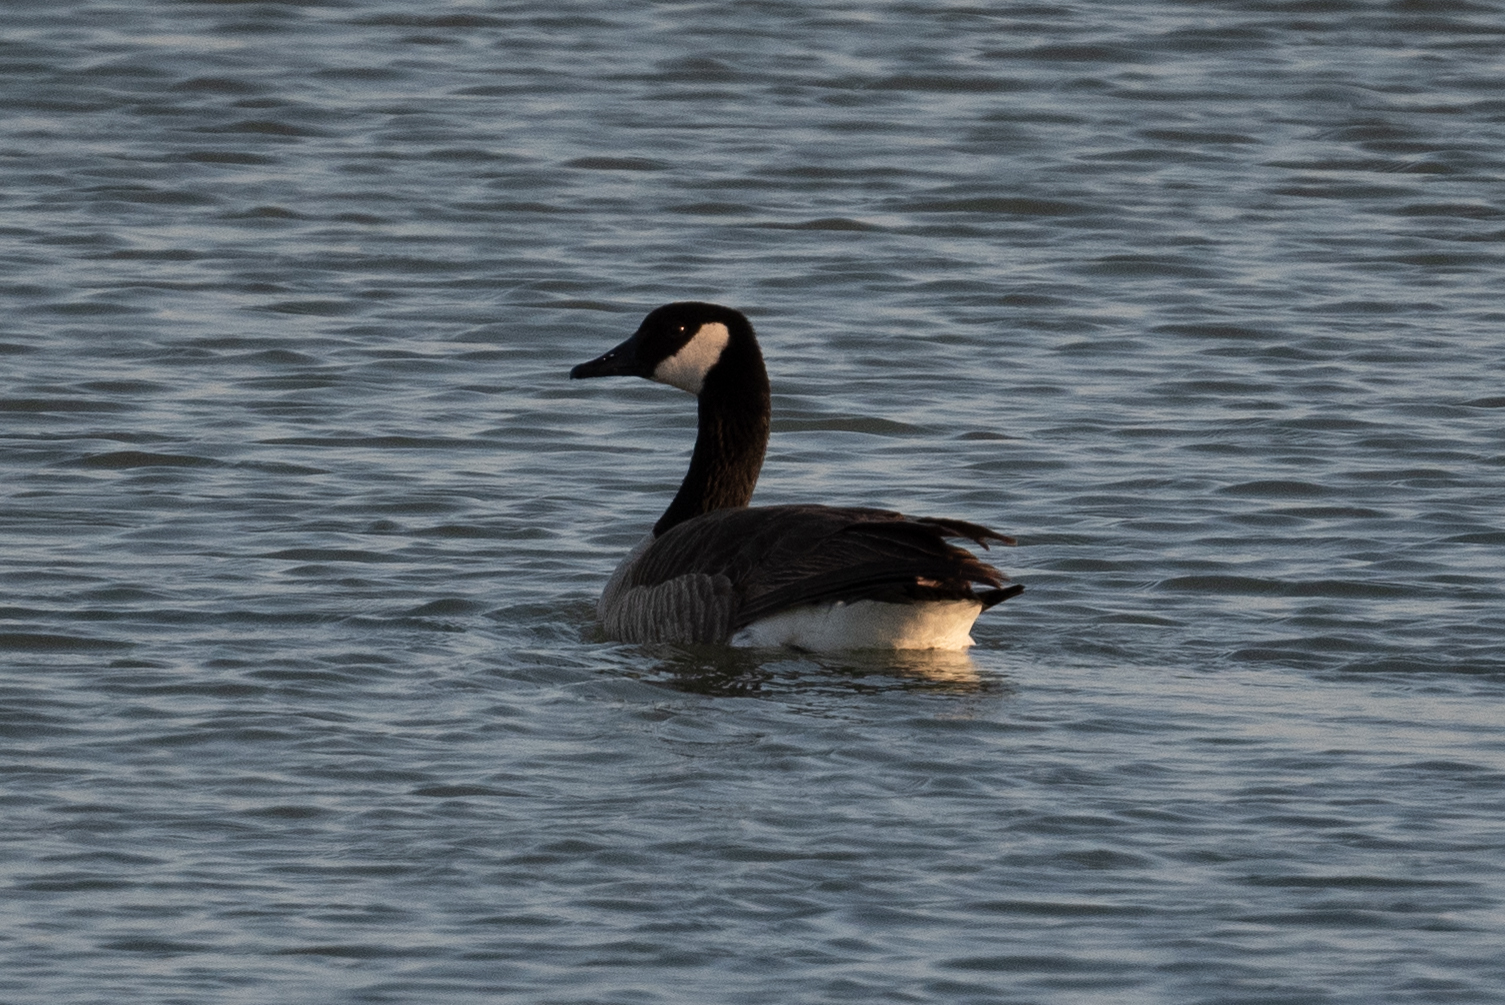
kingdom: Animalia
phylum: Chordata
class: Aves
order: Anseriformes
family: Anatidae
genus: Branta
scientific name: Branta canadensis
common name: Canada goose
